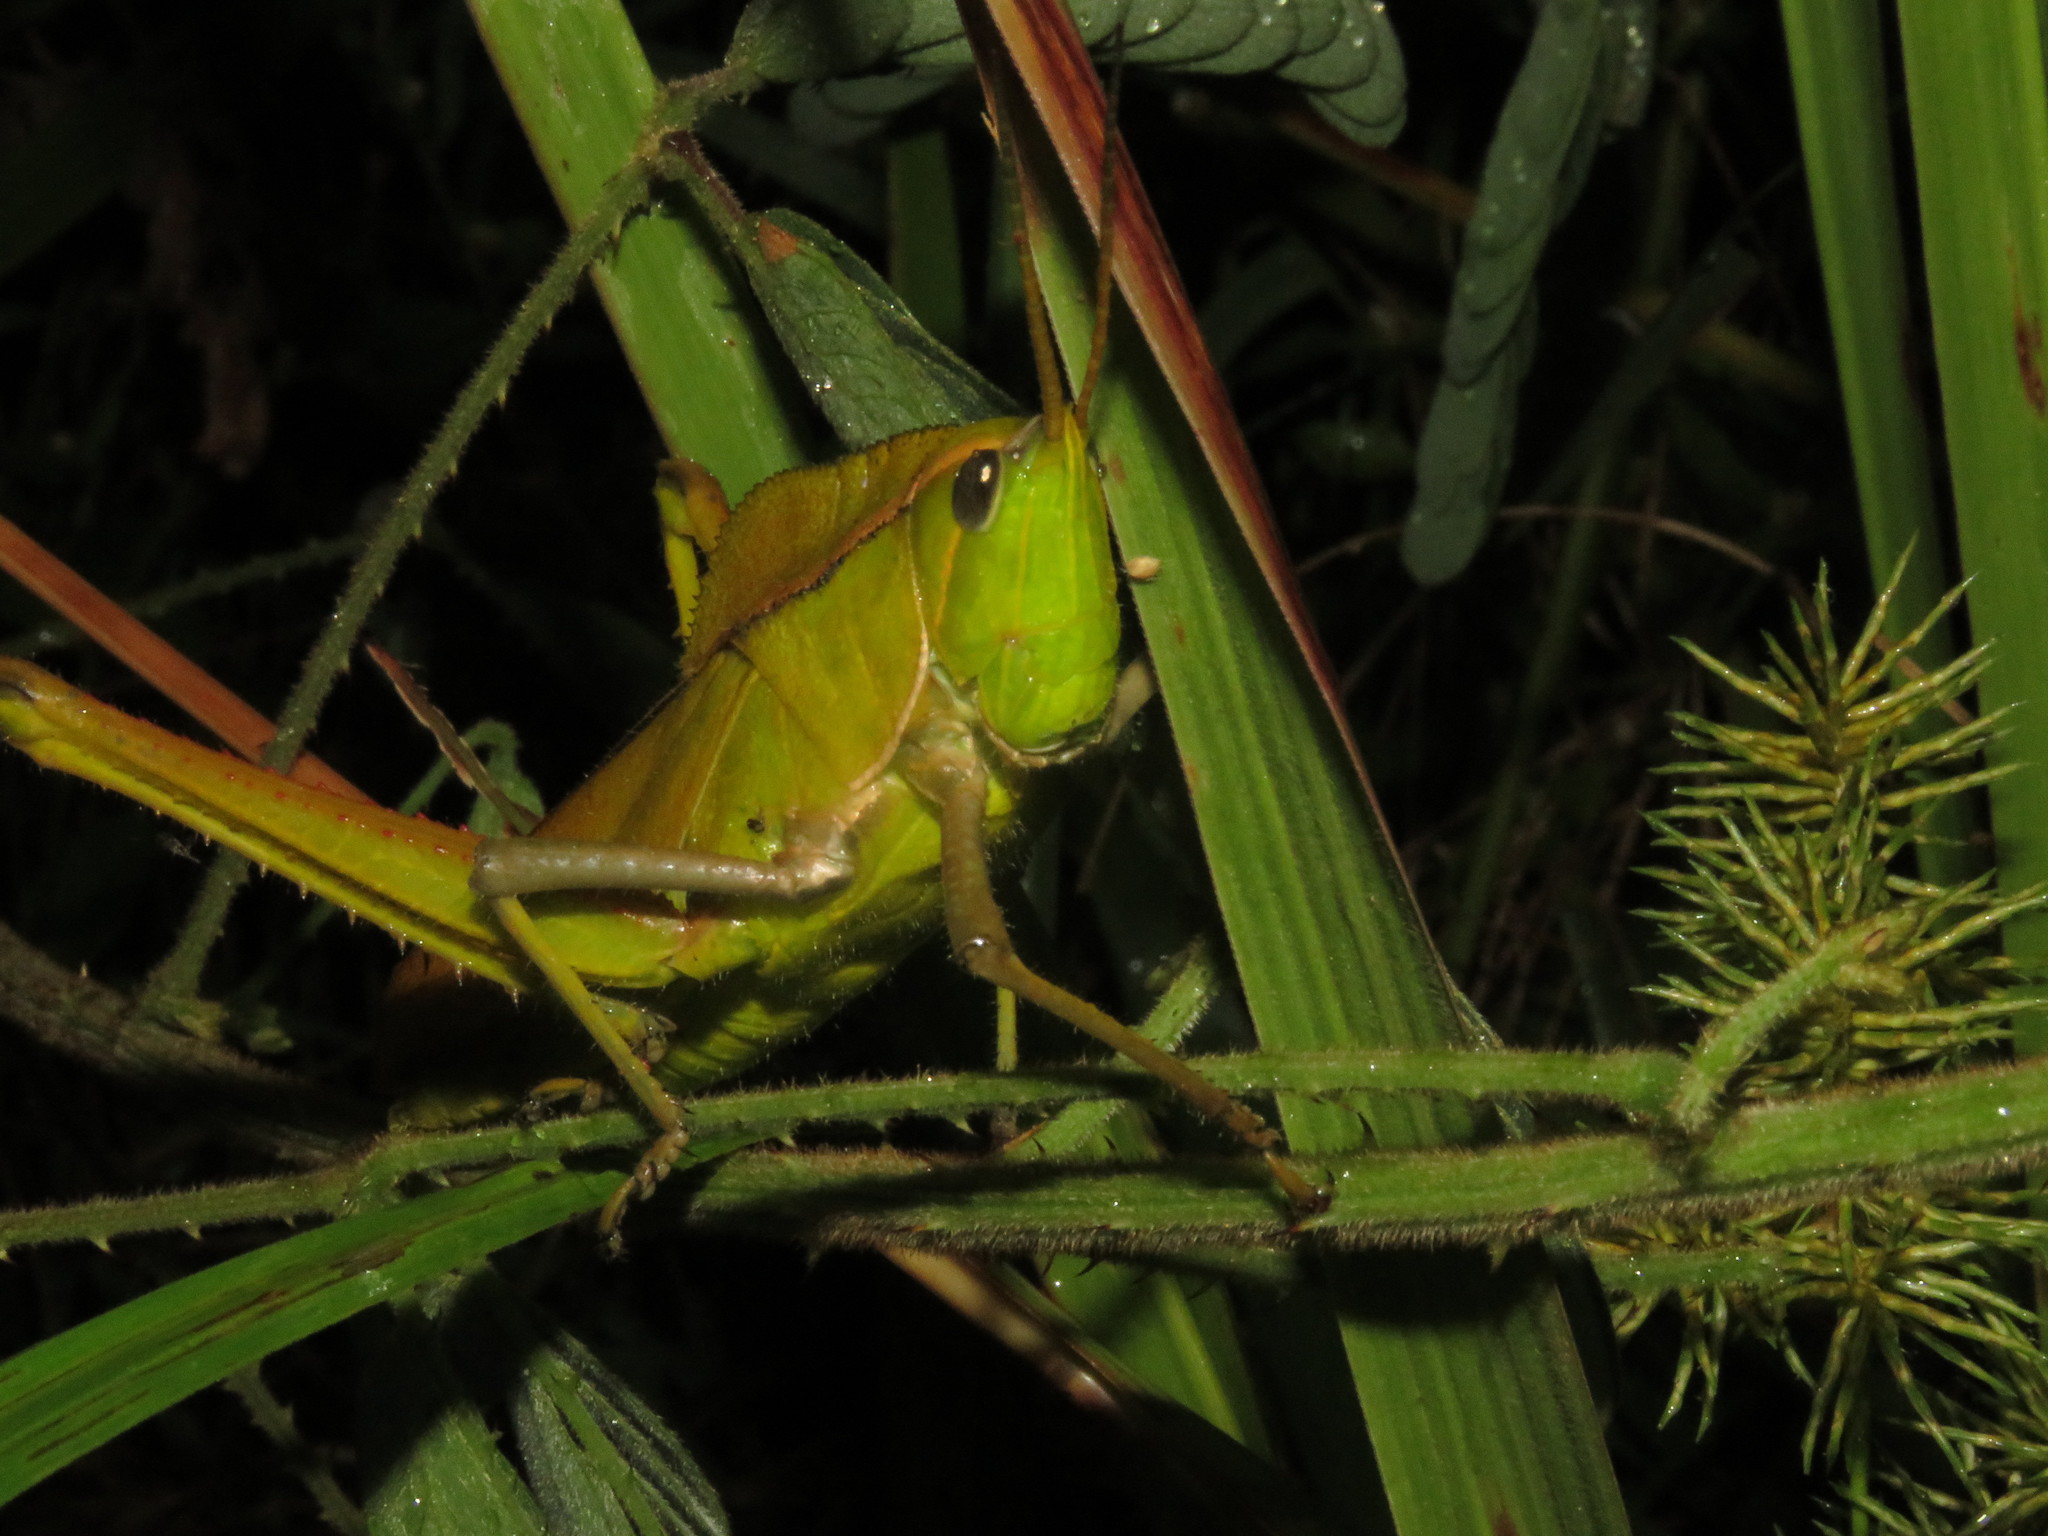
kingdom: Animalia
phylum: Arthropoda
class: Insecta
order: Orthoptera
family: Romaleidae
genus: Prionolopha
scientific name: Prionolopha serrata
